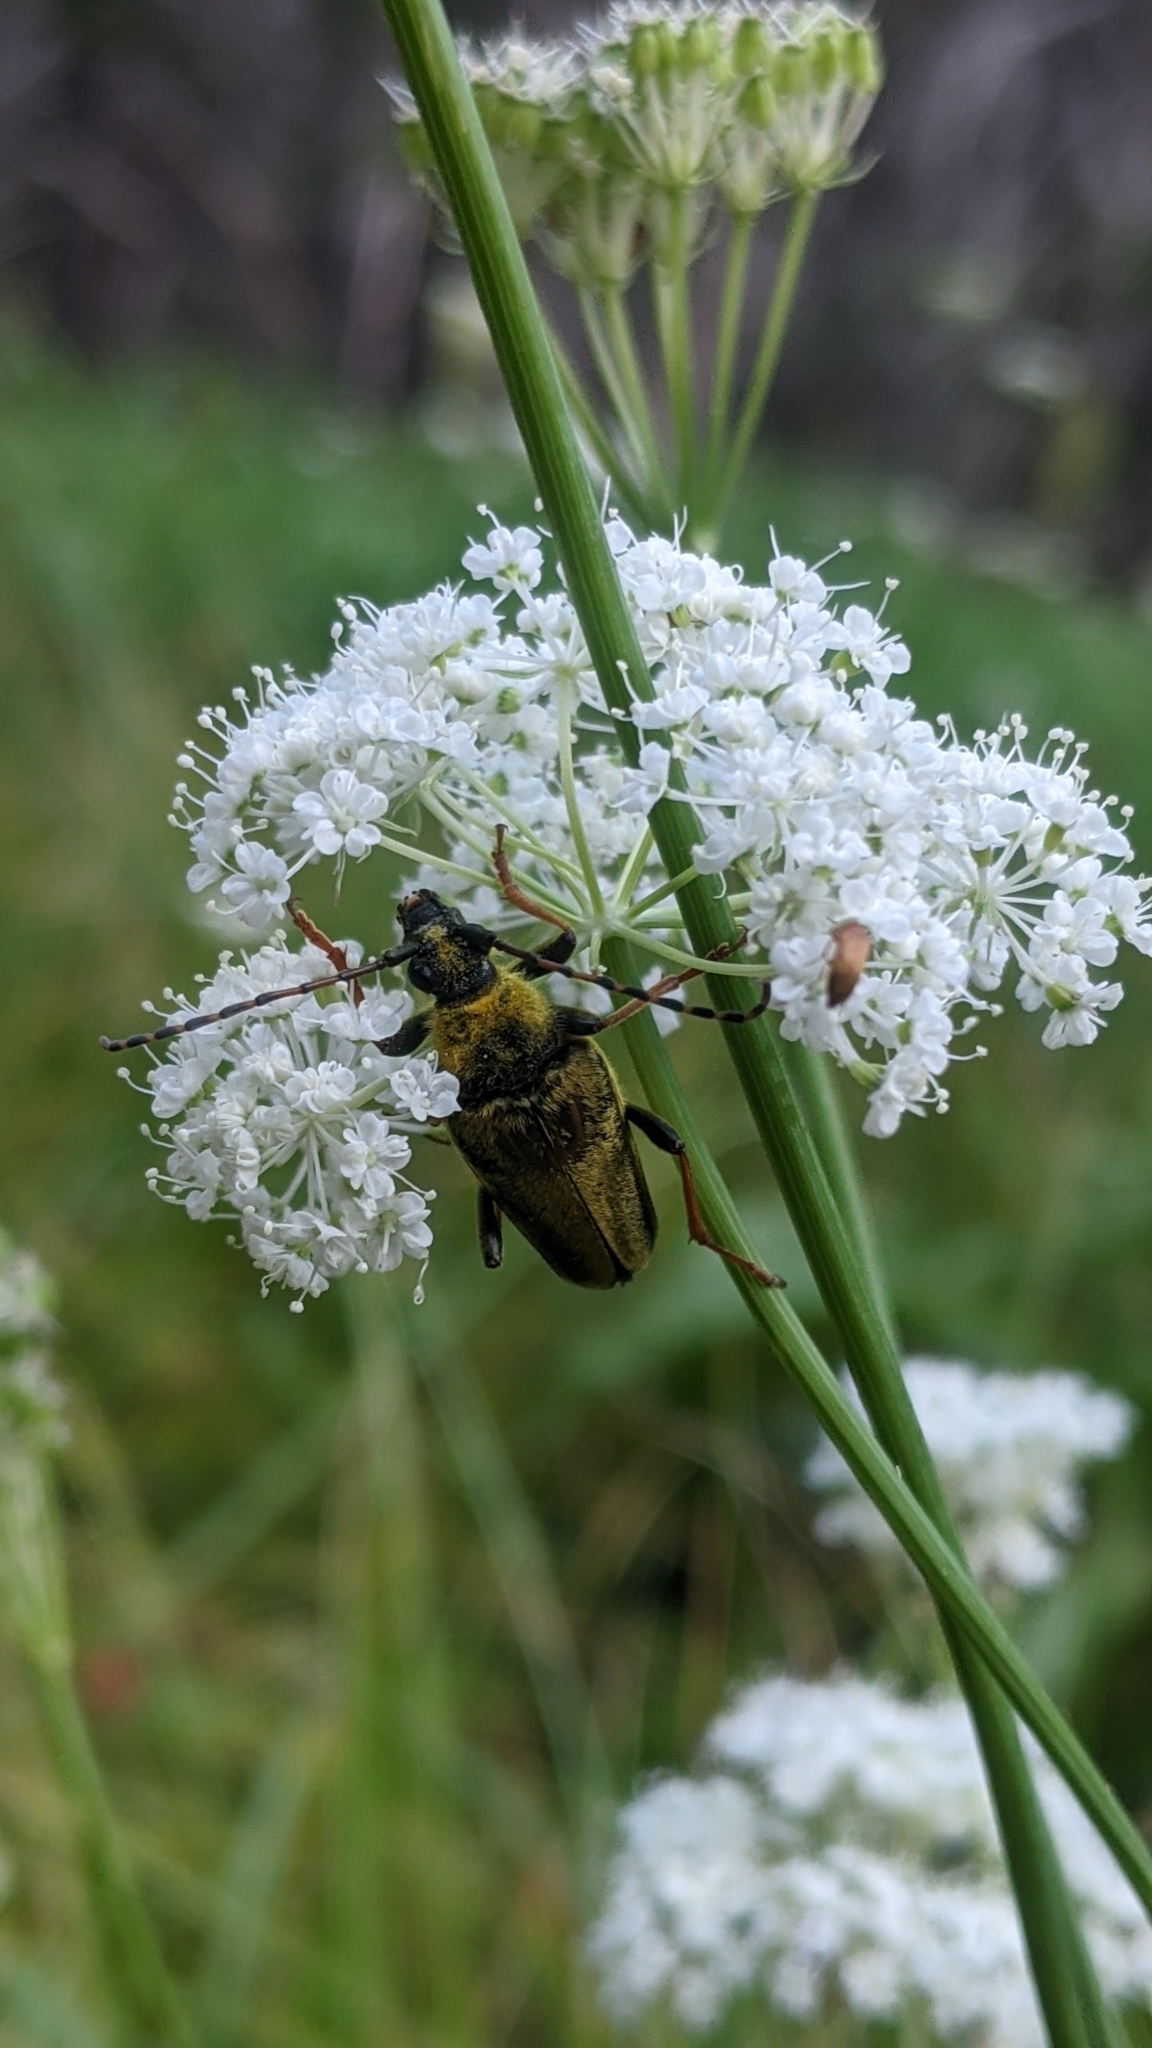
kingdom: Animalia
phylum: Arthropoda
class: Insecta
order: Coleoptera
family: Cerambycidae
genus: Cosmosalia
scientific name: Cosmosalia chrysocoma
